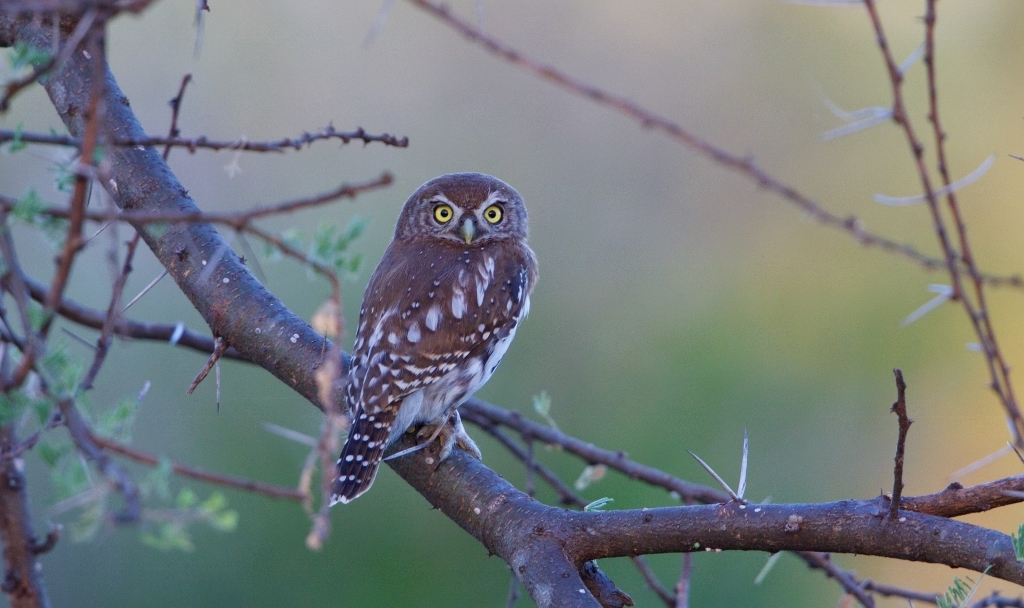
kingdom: Animalia
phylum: Chordata
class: Aves
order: Strigiformes
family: Strigidae
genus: Glaucidium
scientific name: Glaucidium perlatum
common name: Pearl-spotted owlet
